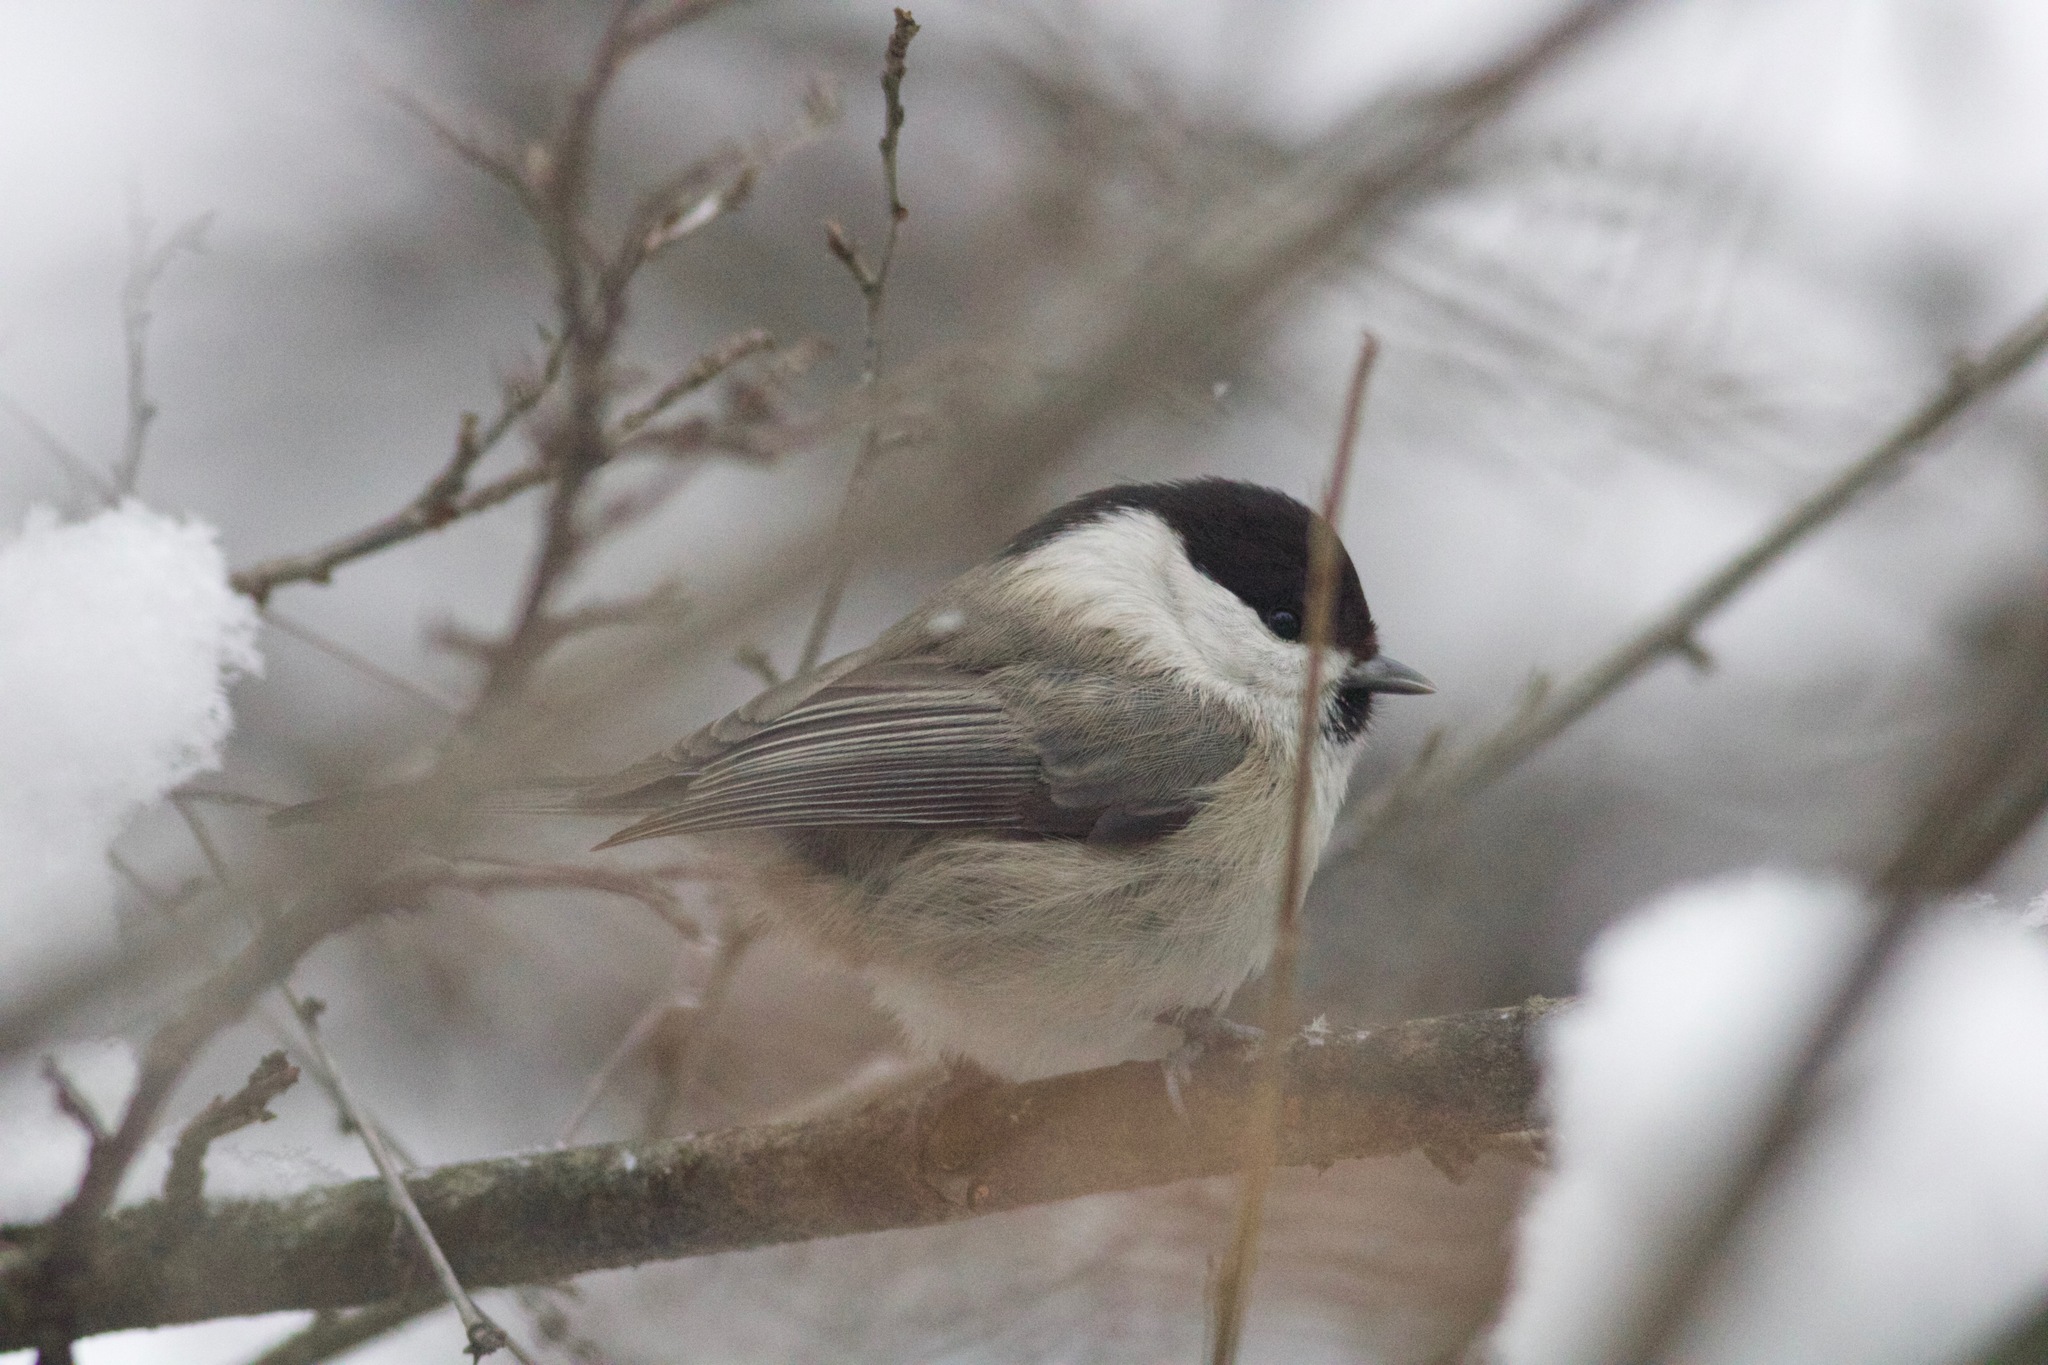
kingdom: Animalia
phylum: Chordata
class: Aves
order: Passeriformes
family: Paridae
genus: Poecile
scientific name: Poecile montanus
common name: Willow tit
